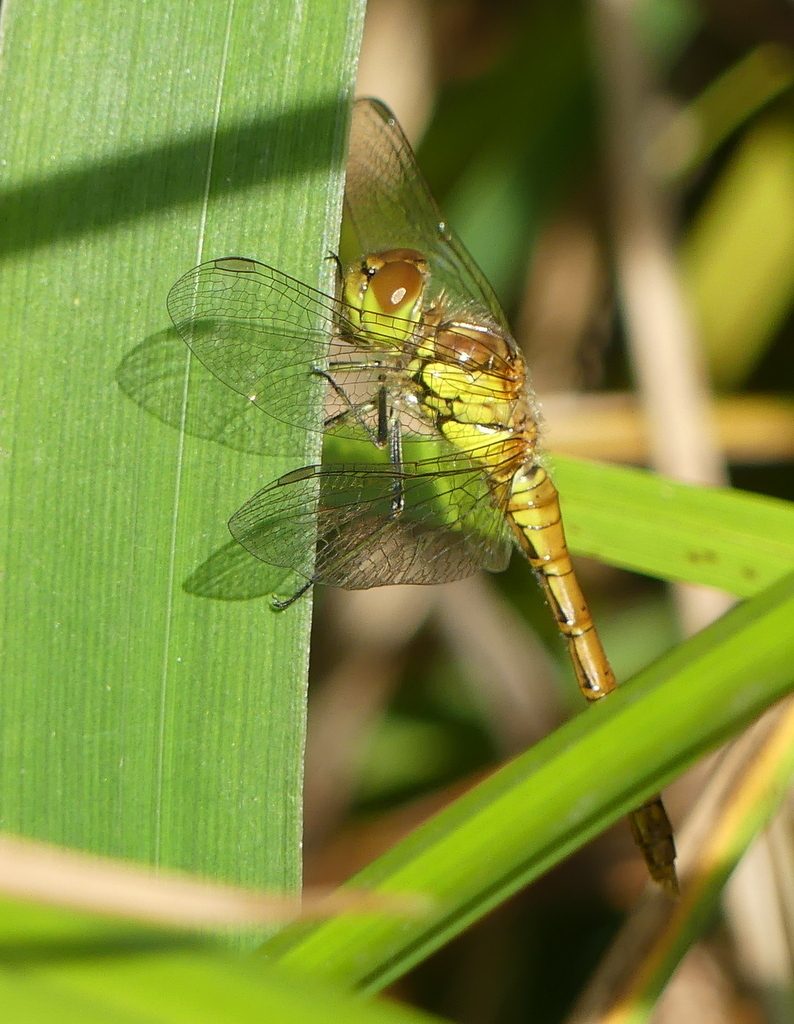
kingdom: Animalia
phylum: Arthropoda
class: Insecta
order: Odonata
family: Libellulidae
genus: Sympetrum
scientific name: Sympetrum striolatum
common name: Common darter
